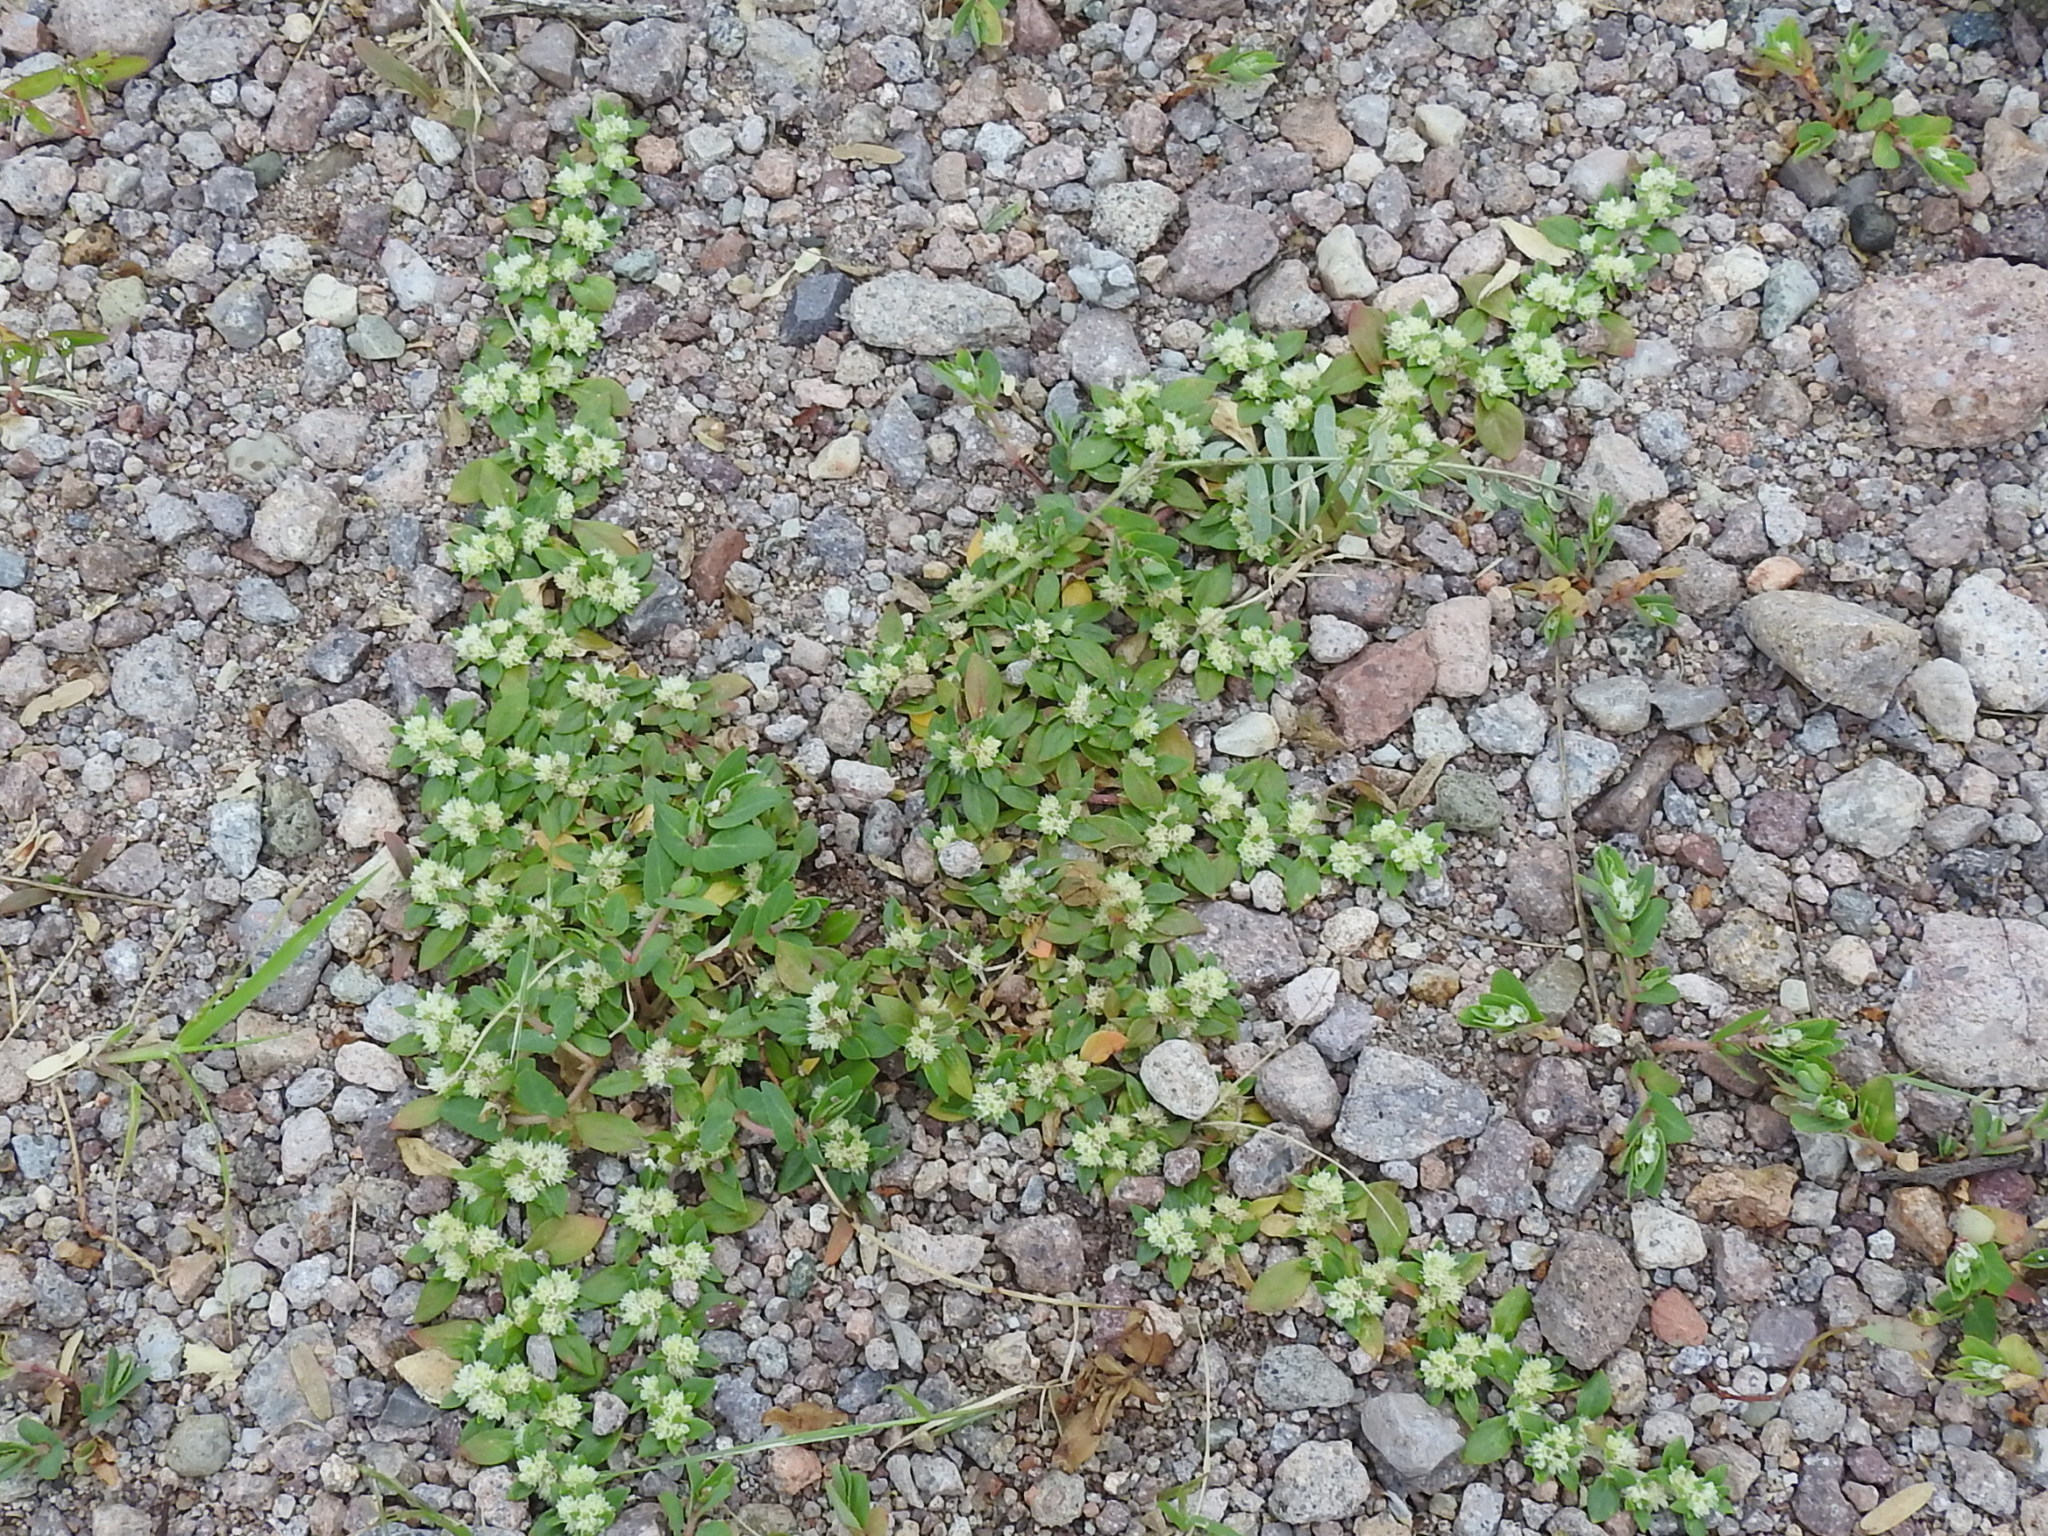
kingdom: Plantae
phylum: Tracheophyta
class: Magnoliopsida
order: Caryophyllales
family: Amaranthaceae
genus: Guilleminea
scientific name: Guilleminea densa
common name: Small matweed
